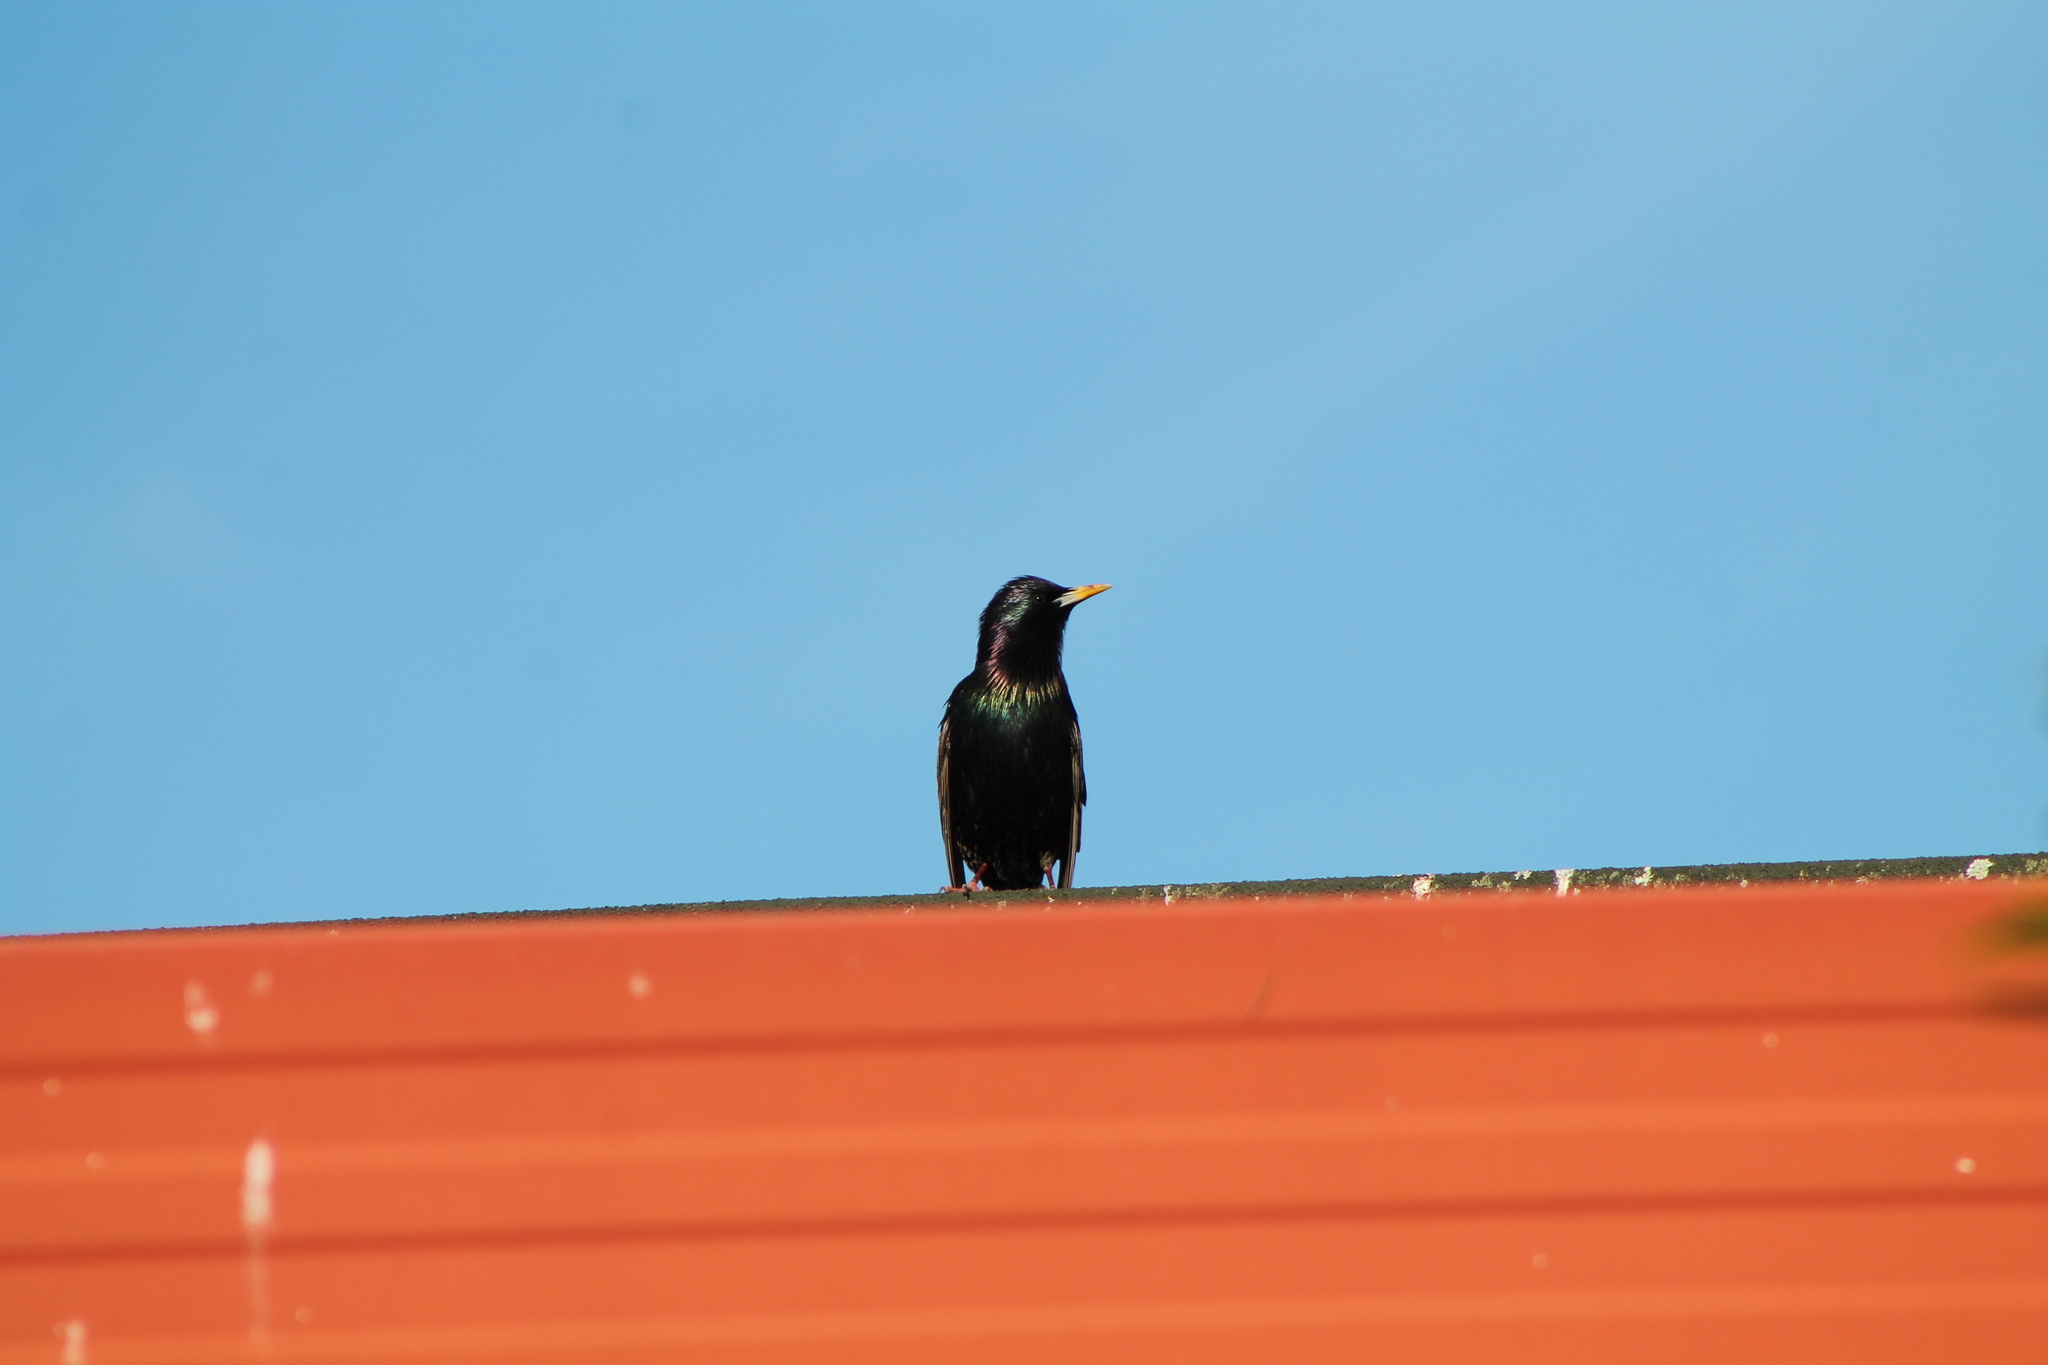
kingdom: Animalia
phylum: Chordata
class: Aves
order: Passeriformes
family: Sturnidae
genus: Sturnus
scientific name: Sturnus vulgaris
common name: Common starling
